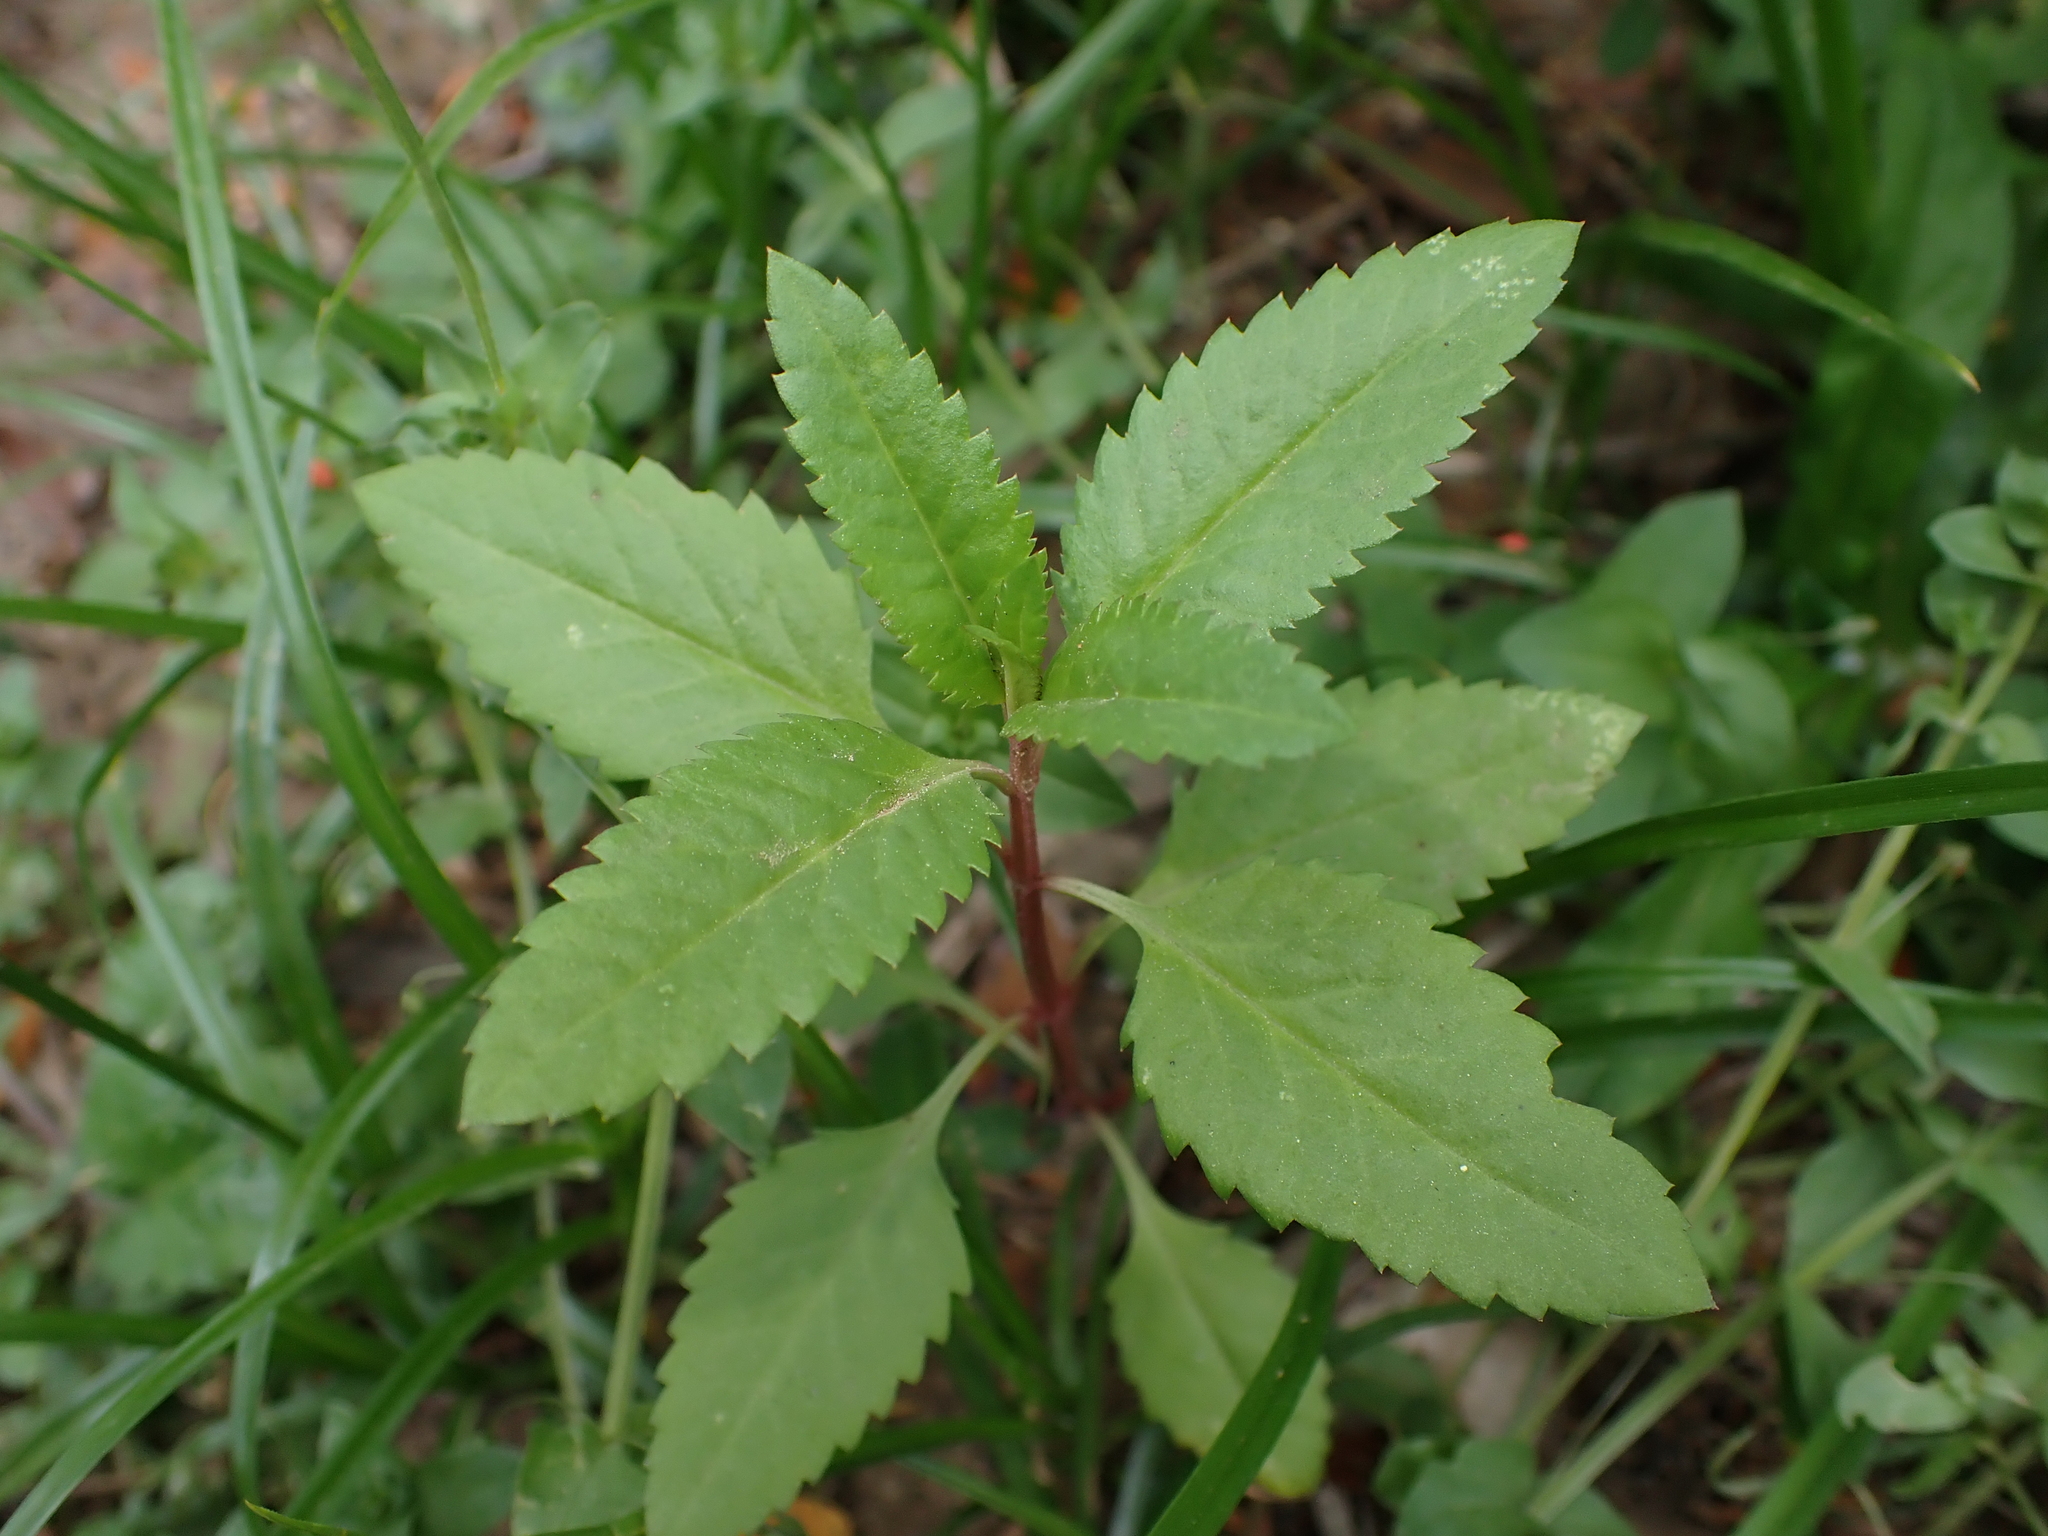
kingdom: Plantae
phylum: Tracheophyta
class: Magnoliopsida
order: Saxifragales
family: Haloragaceae
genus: Haloragis
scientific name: Haloragis erecta
